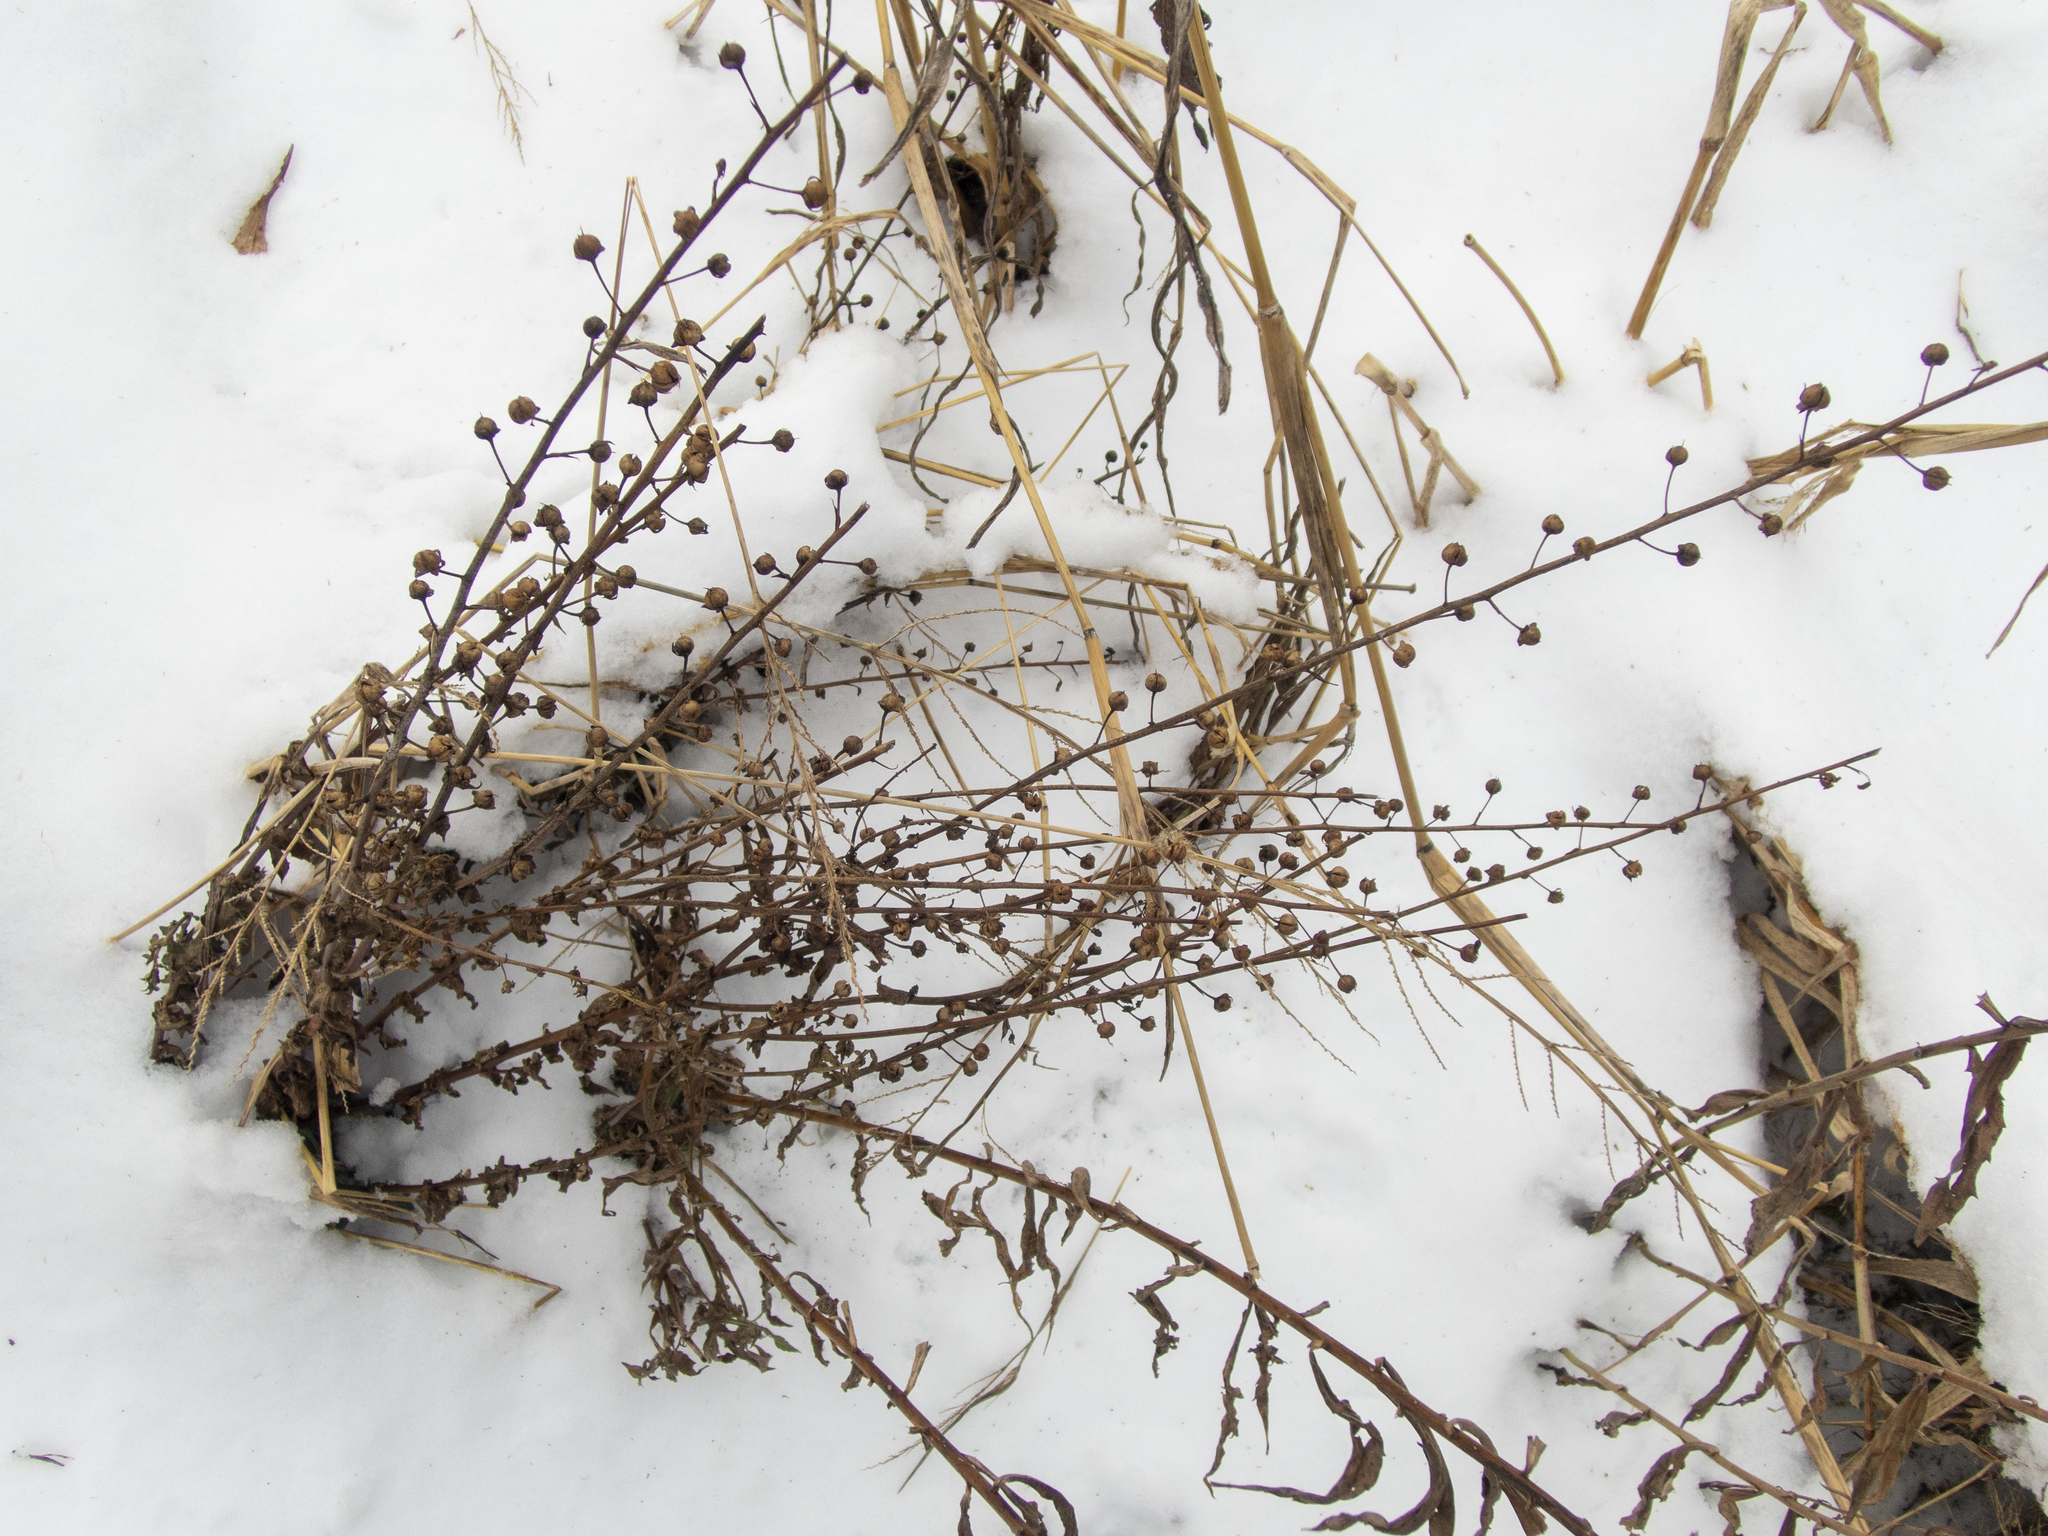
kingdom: Plantae
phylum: Tracheophyta
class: Magnoliopsida
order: Lamiales
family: Scrophulariaceae
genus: Verbascum
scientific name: Verbascum blattaria
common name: Moth mullein
